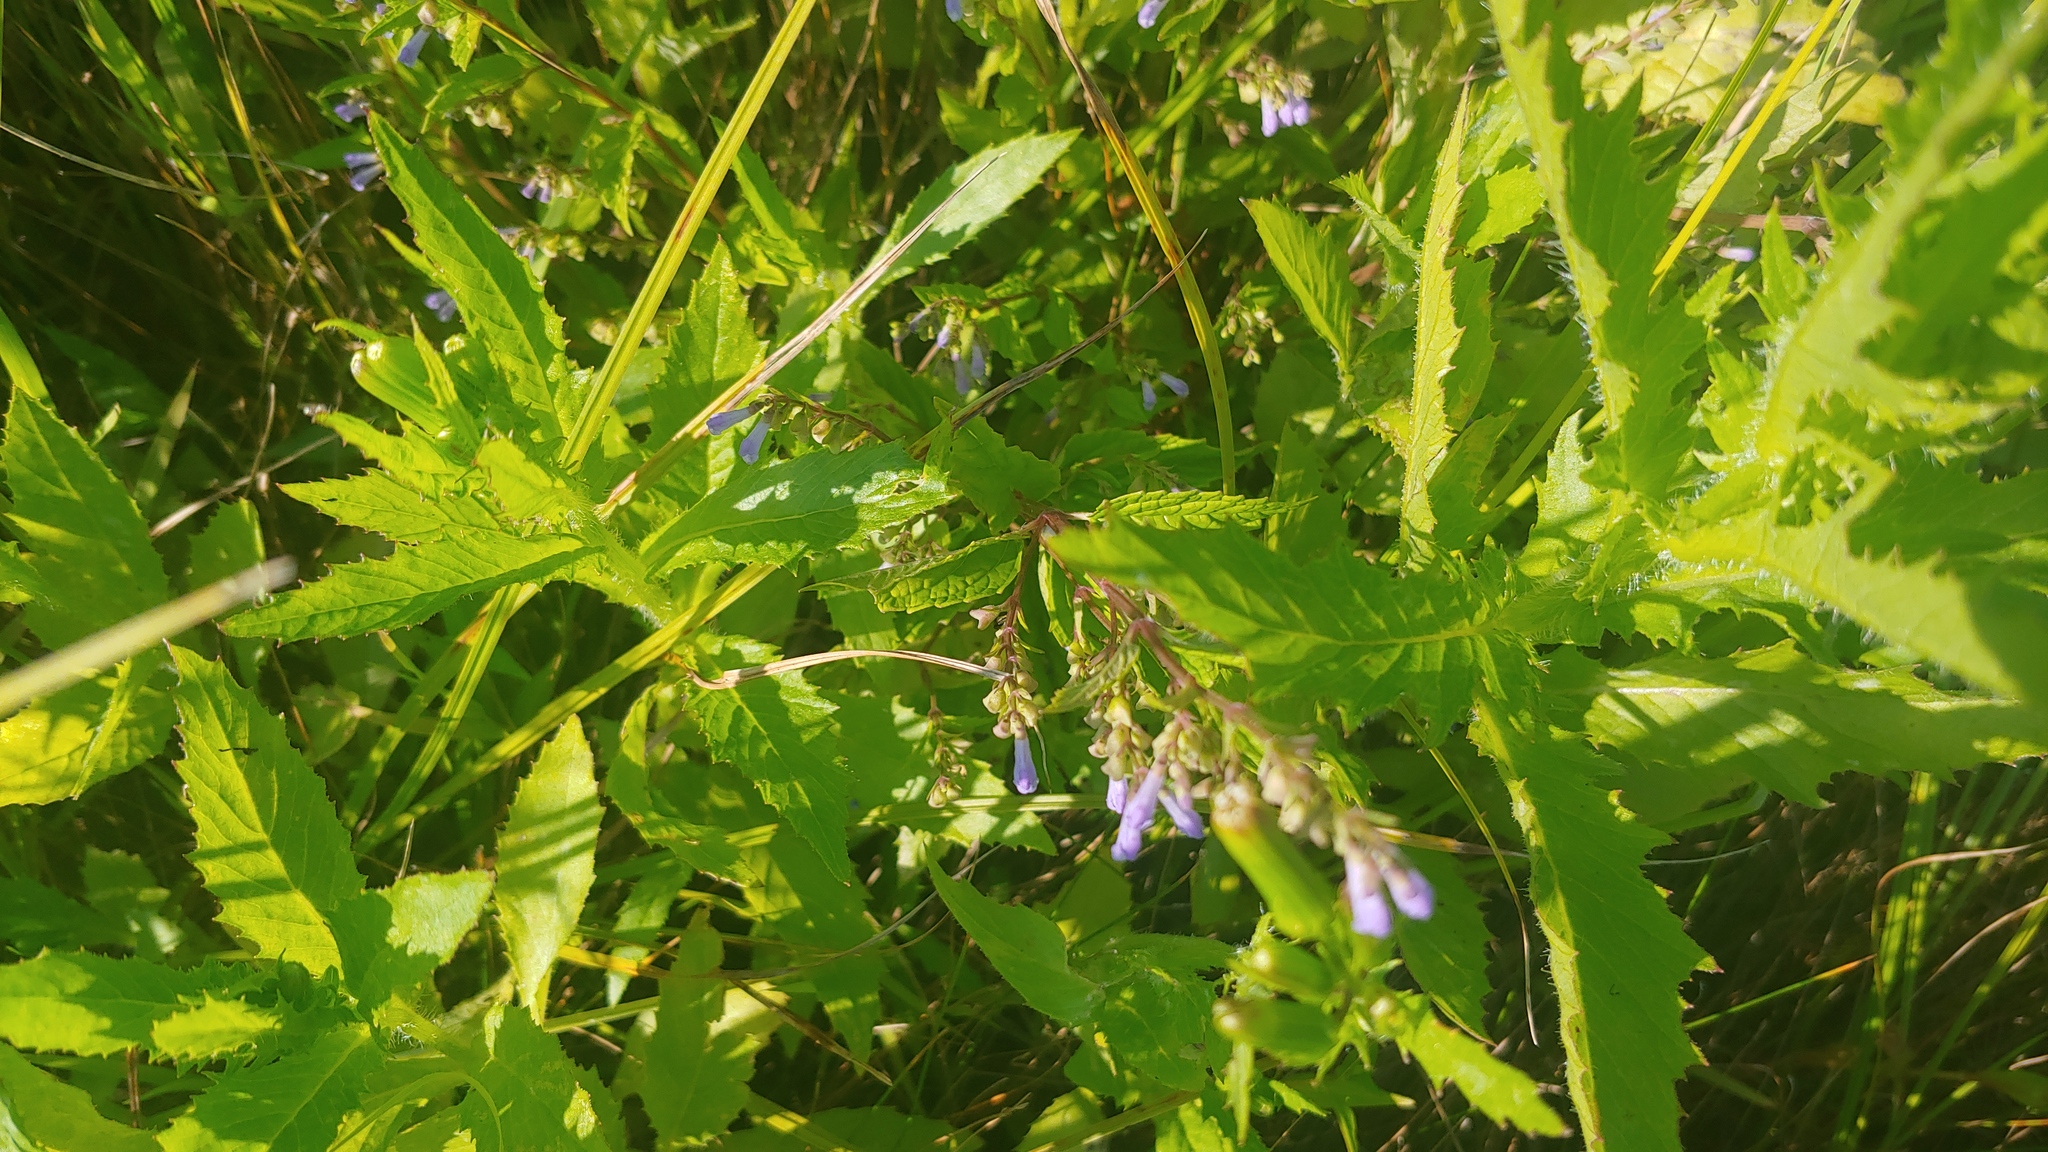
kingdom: Plantae
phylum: Tracheophyta
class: Magnoliopsida
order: Lamiales
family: Lamiaceae
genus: Scutellaria
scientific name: Scutellaria lateriflora
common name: Blue skullcap
